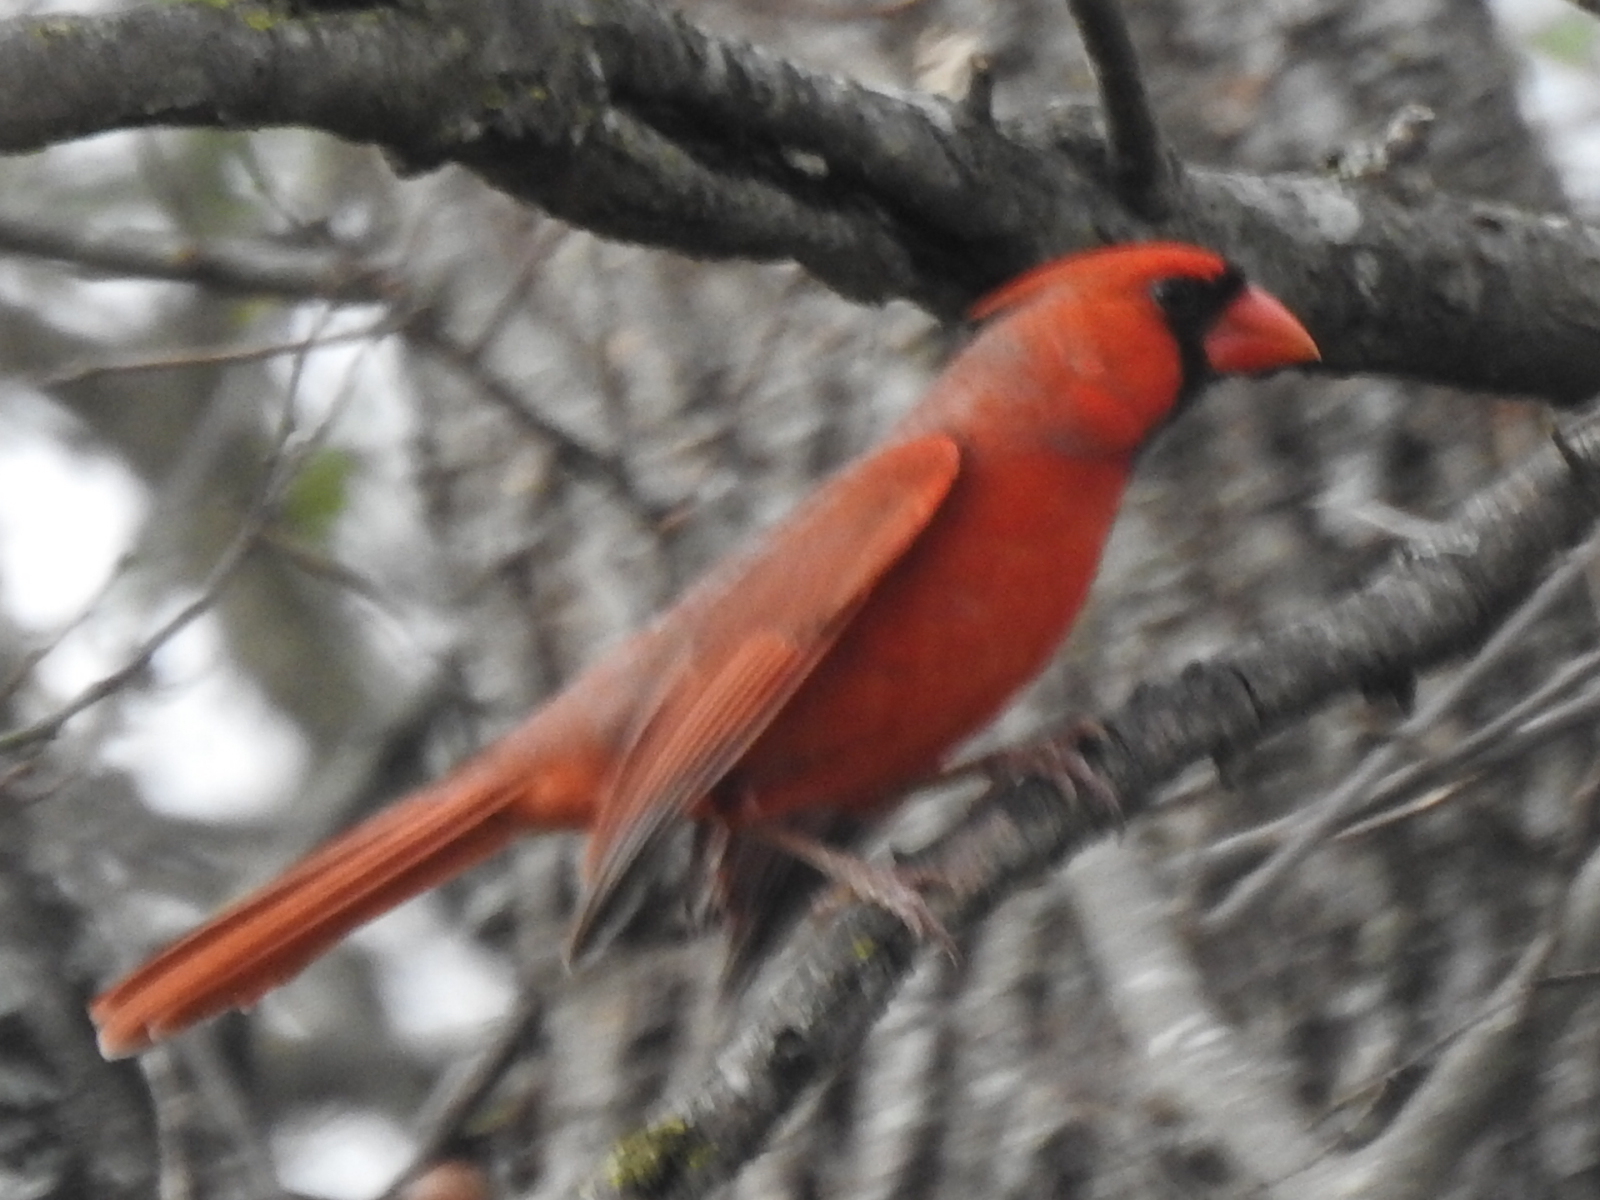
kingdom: Animalia
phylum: Chordata
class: Aves
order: Passeriformes
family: Cardinalidae
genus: Cardinalis
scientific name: Cardinalis cardinalis
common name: Northern cardinal
